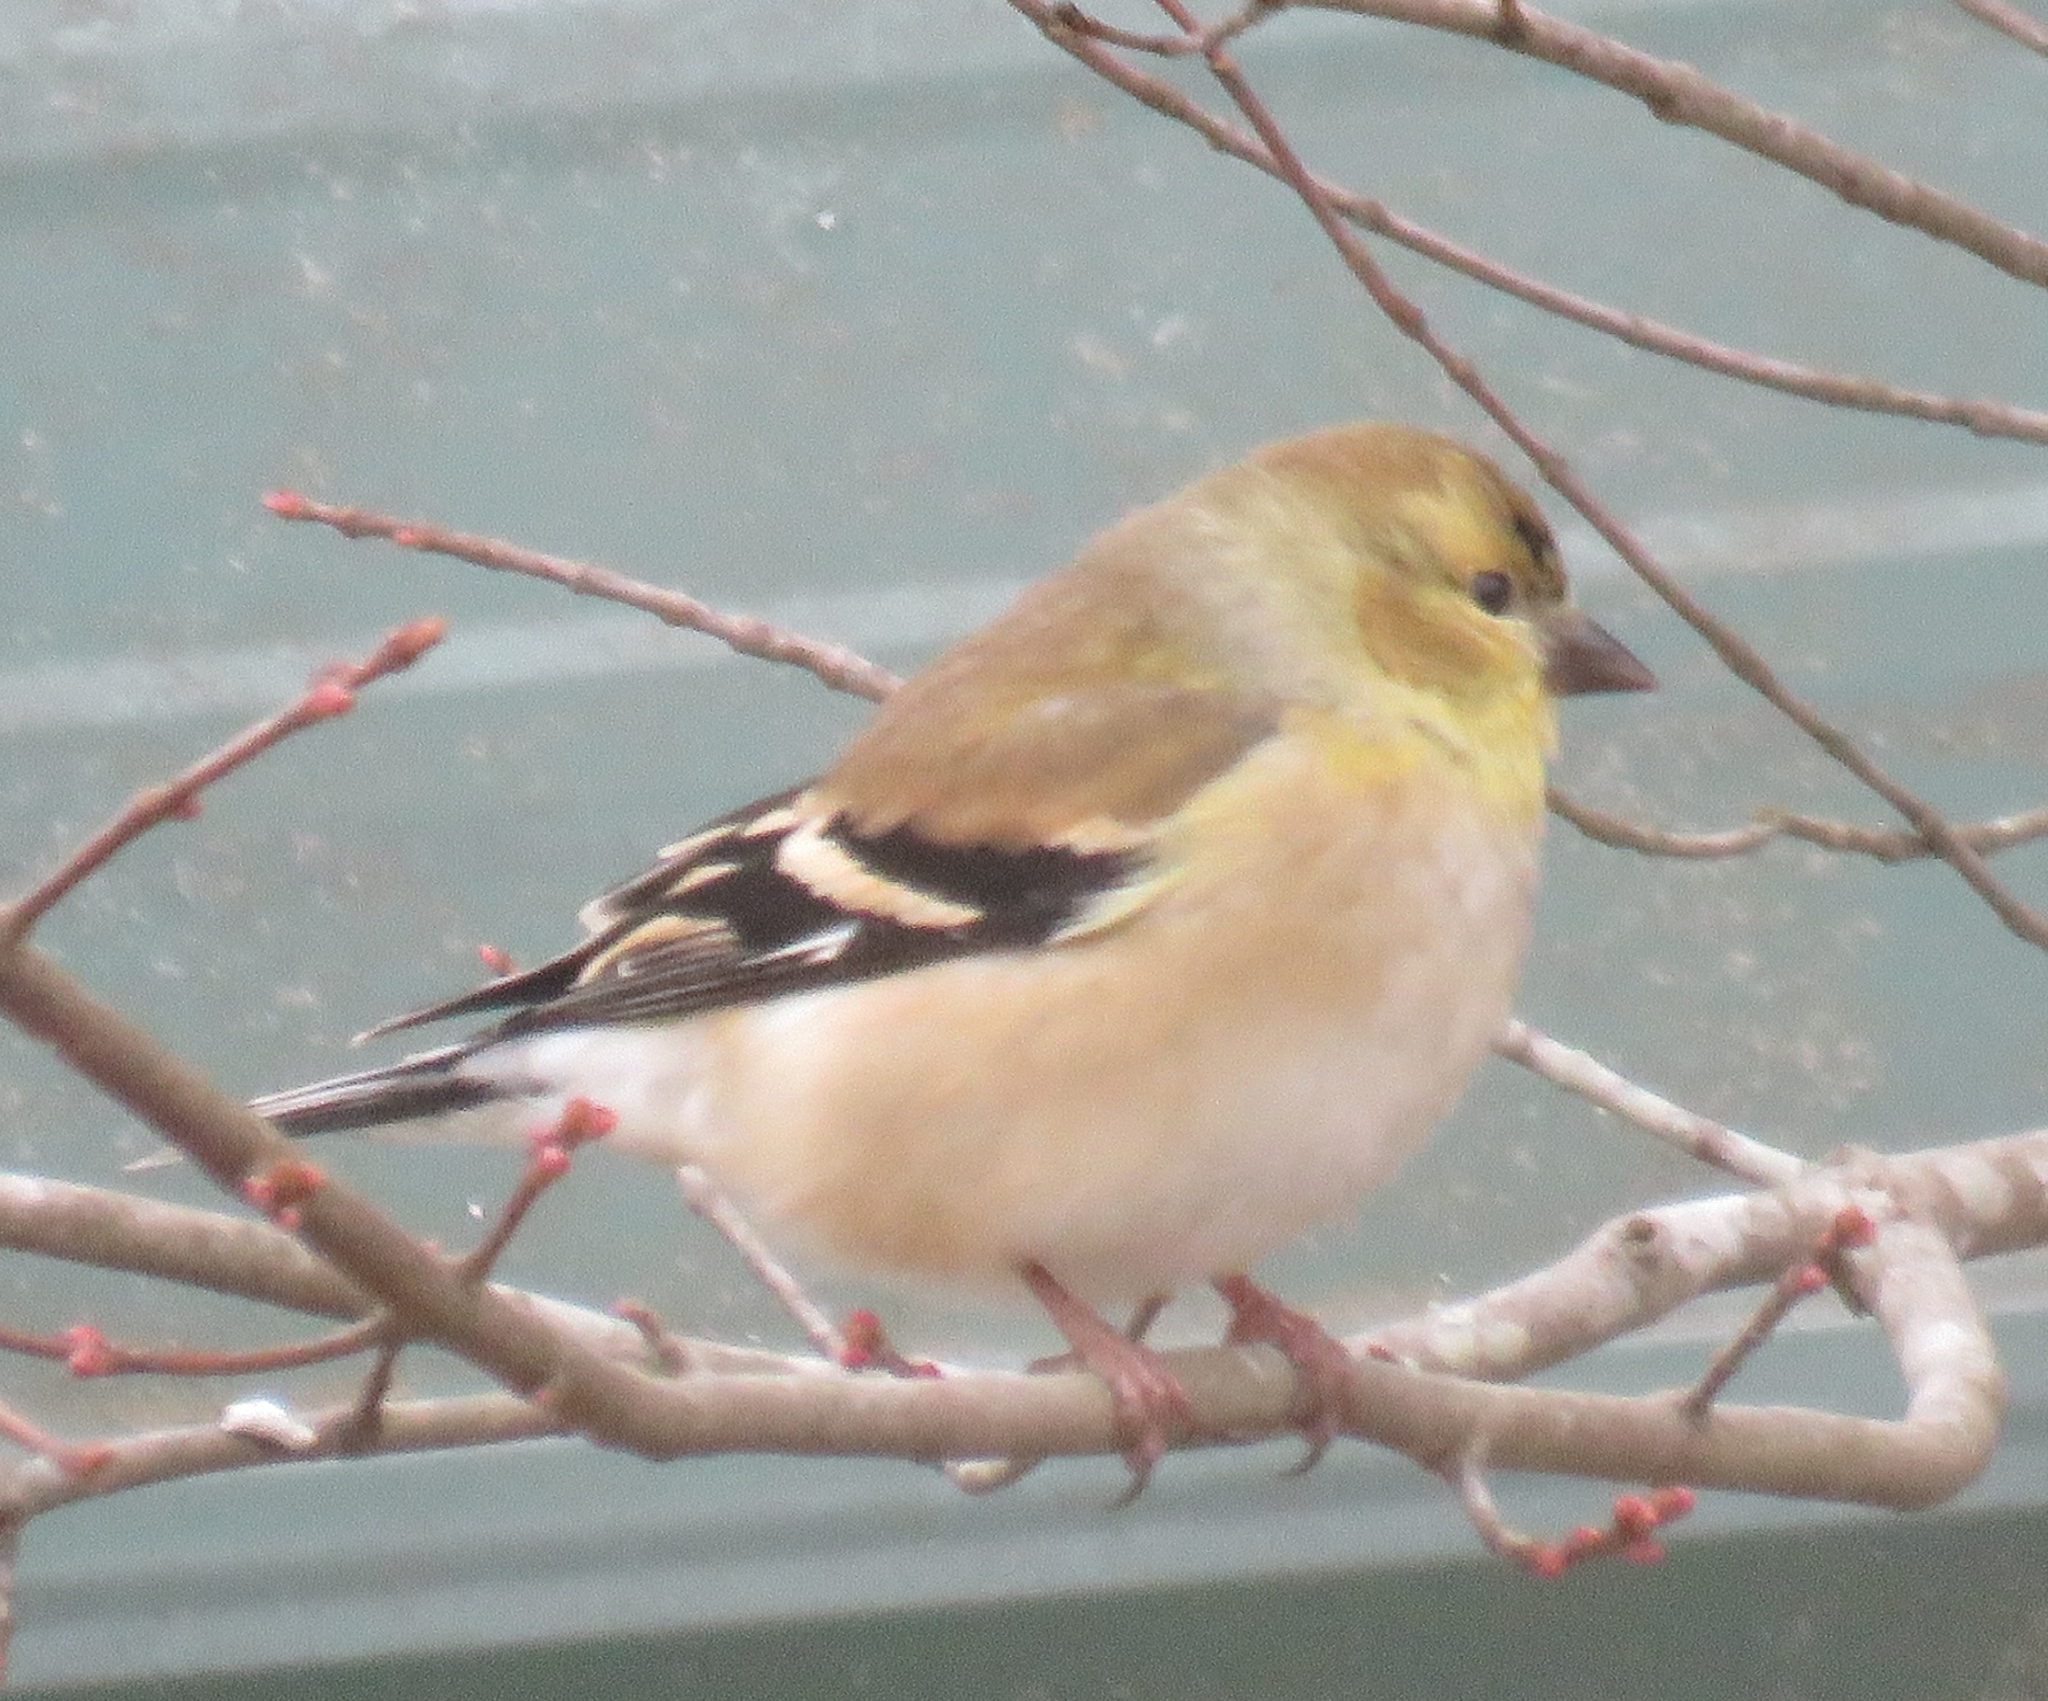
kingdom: Animalia
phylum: Chordata
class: Aves
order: Passeriformes
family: Fringillidae
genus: Spinus
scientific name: Spinus tristis
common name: American goldfinch
